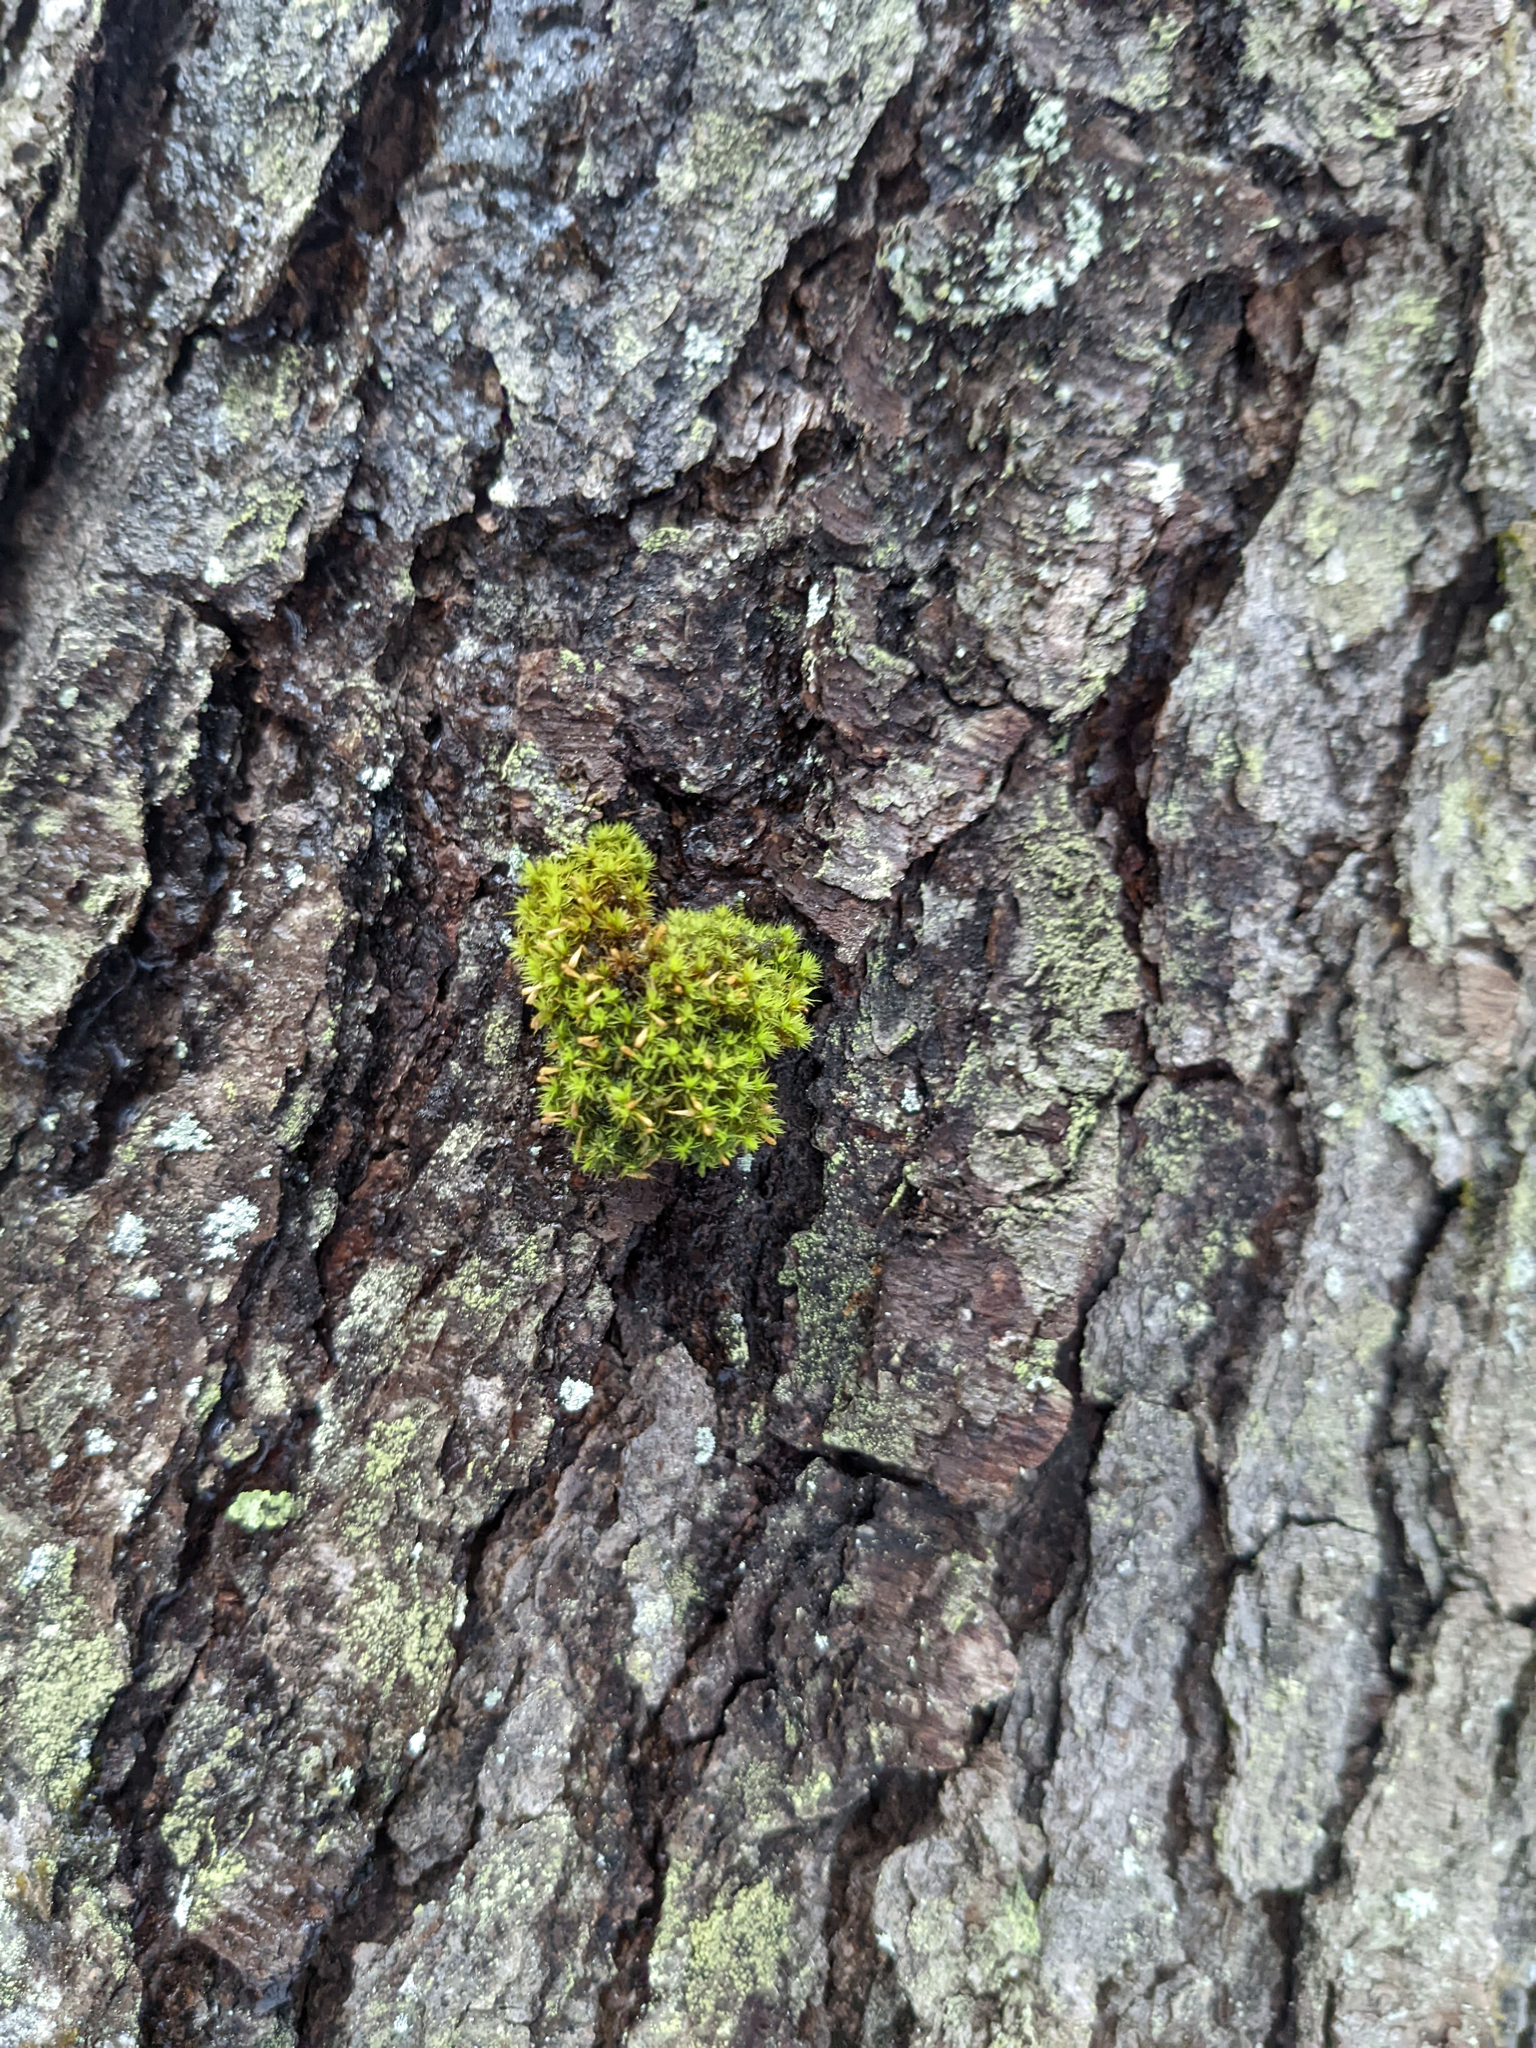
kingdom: Plantae
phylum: Bryophyta
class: Bryopsida
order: Orthotrichales
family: Orthotrichaceae
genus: Ulota
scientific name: Ulota crispa
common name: Crisped pincushion moss
